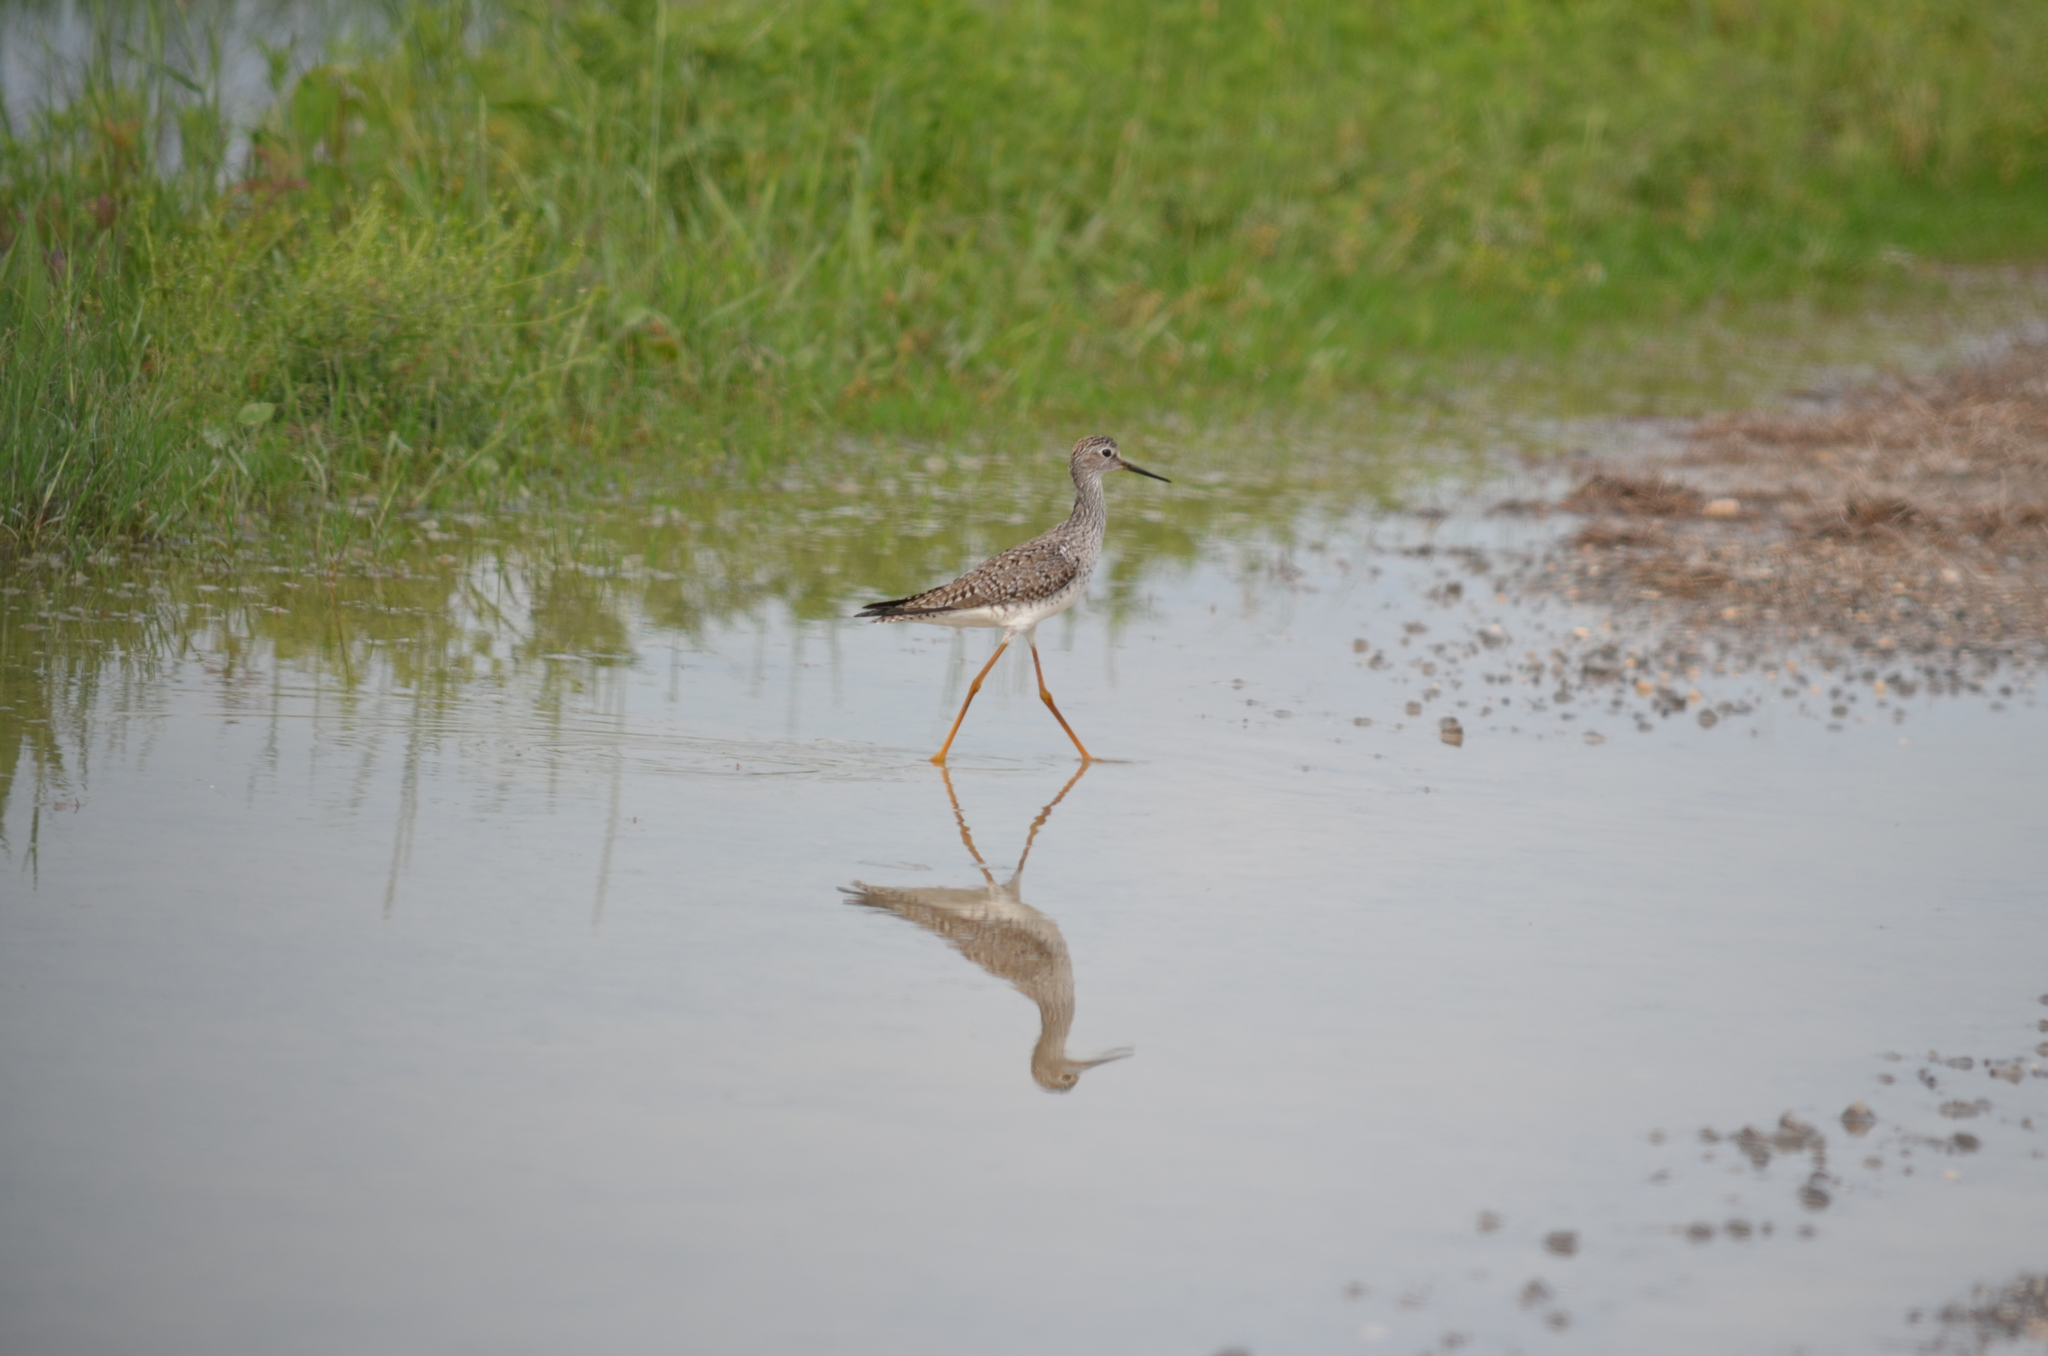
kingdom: Animalia
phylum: Chordata
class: Aves
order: Charadriiformes
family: Scolopacidae
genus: Tringa
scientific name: Tringa flavipes
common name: Lesser yellowlegs
